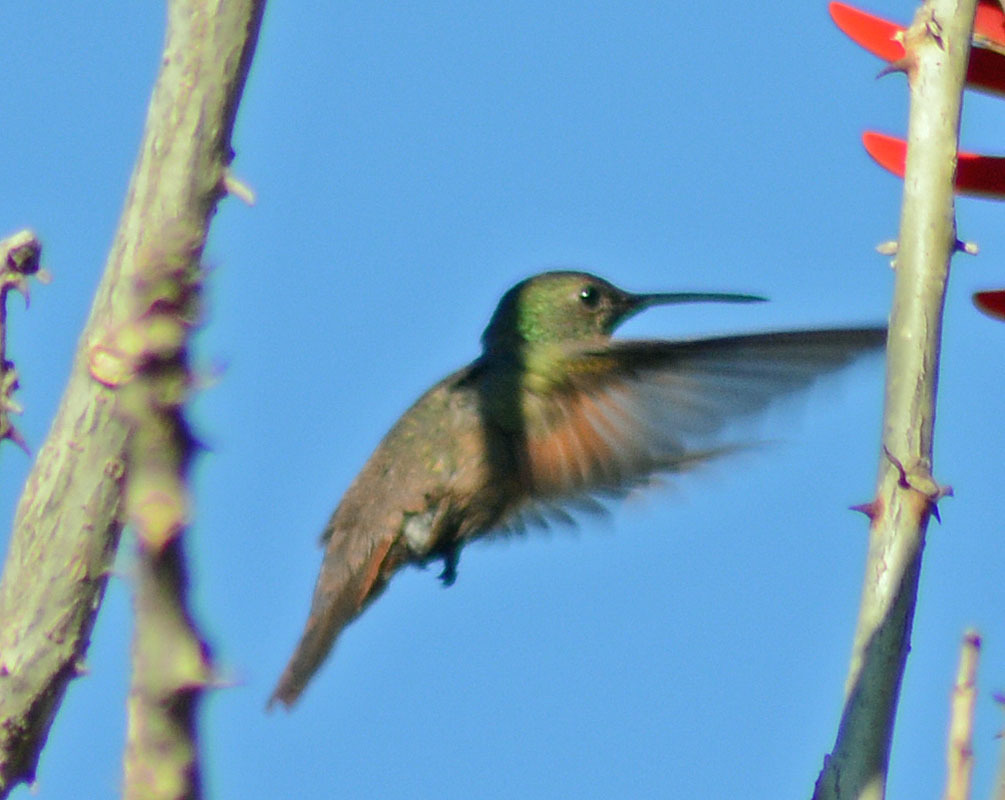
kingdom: Animalia
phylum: Chordata
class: Aves
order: Apodiformes
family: Trochilidae
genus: Saucerottia
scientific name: Saucerottia beryllina
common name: Berylline hummingbird
